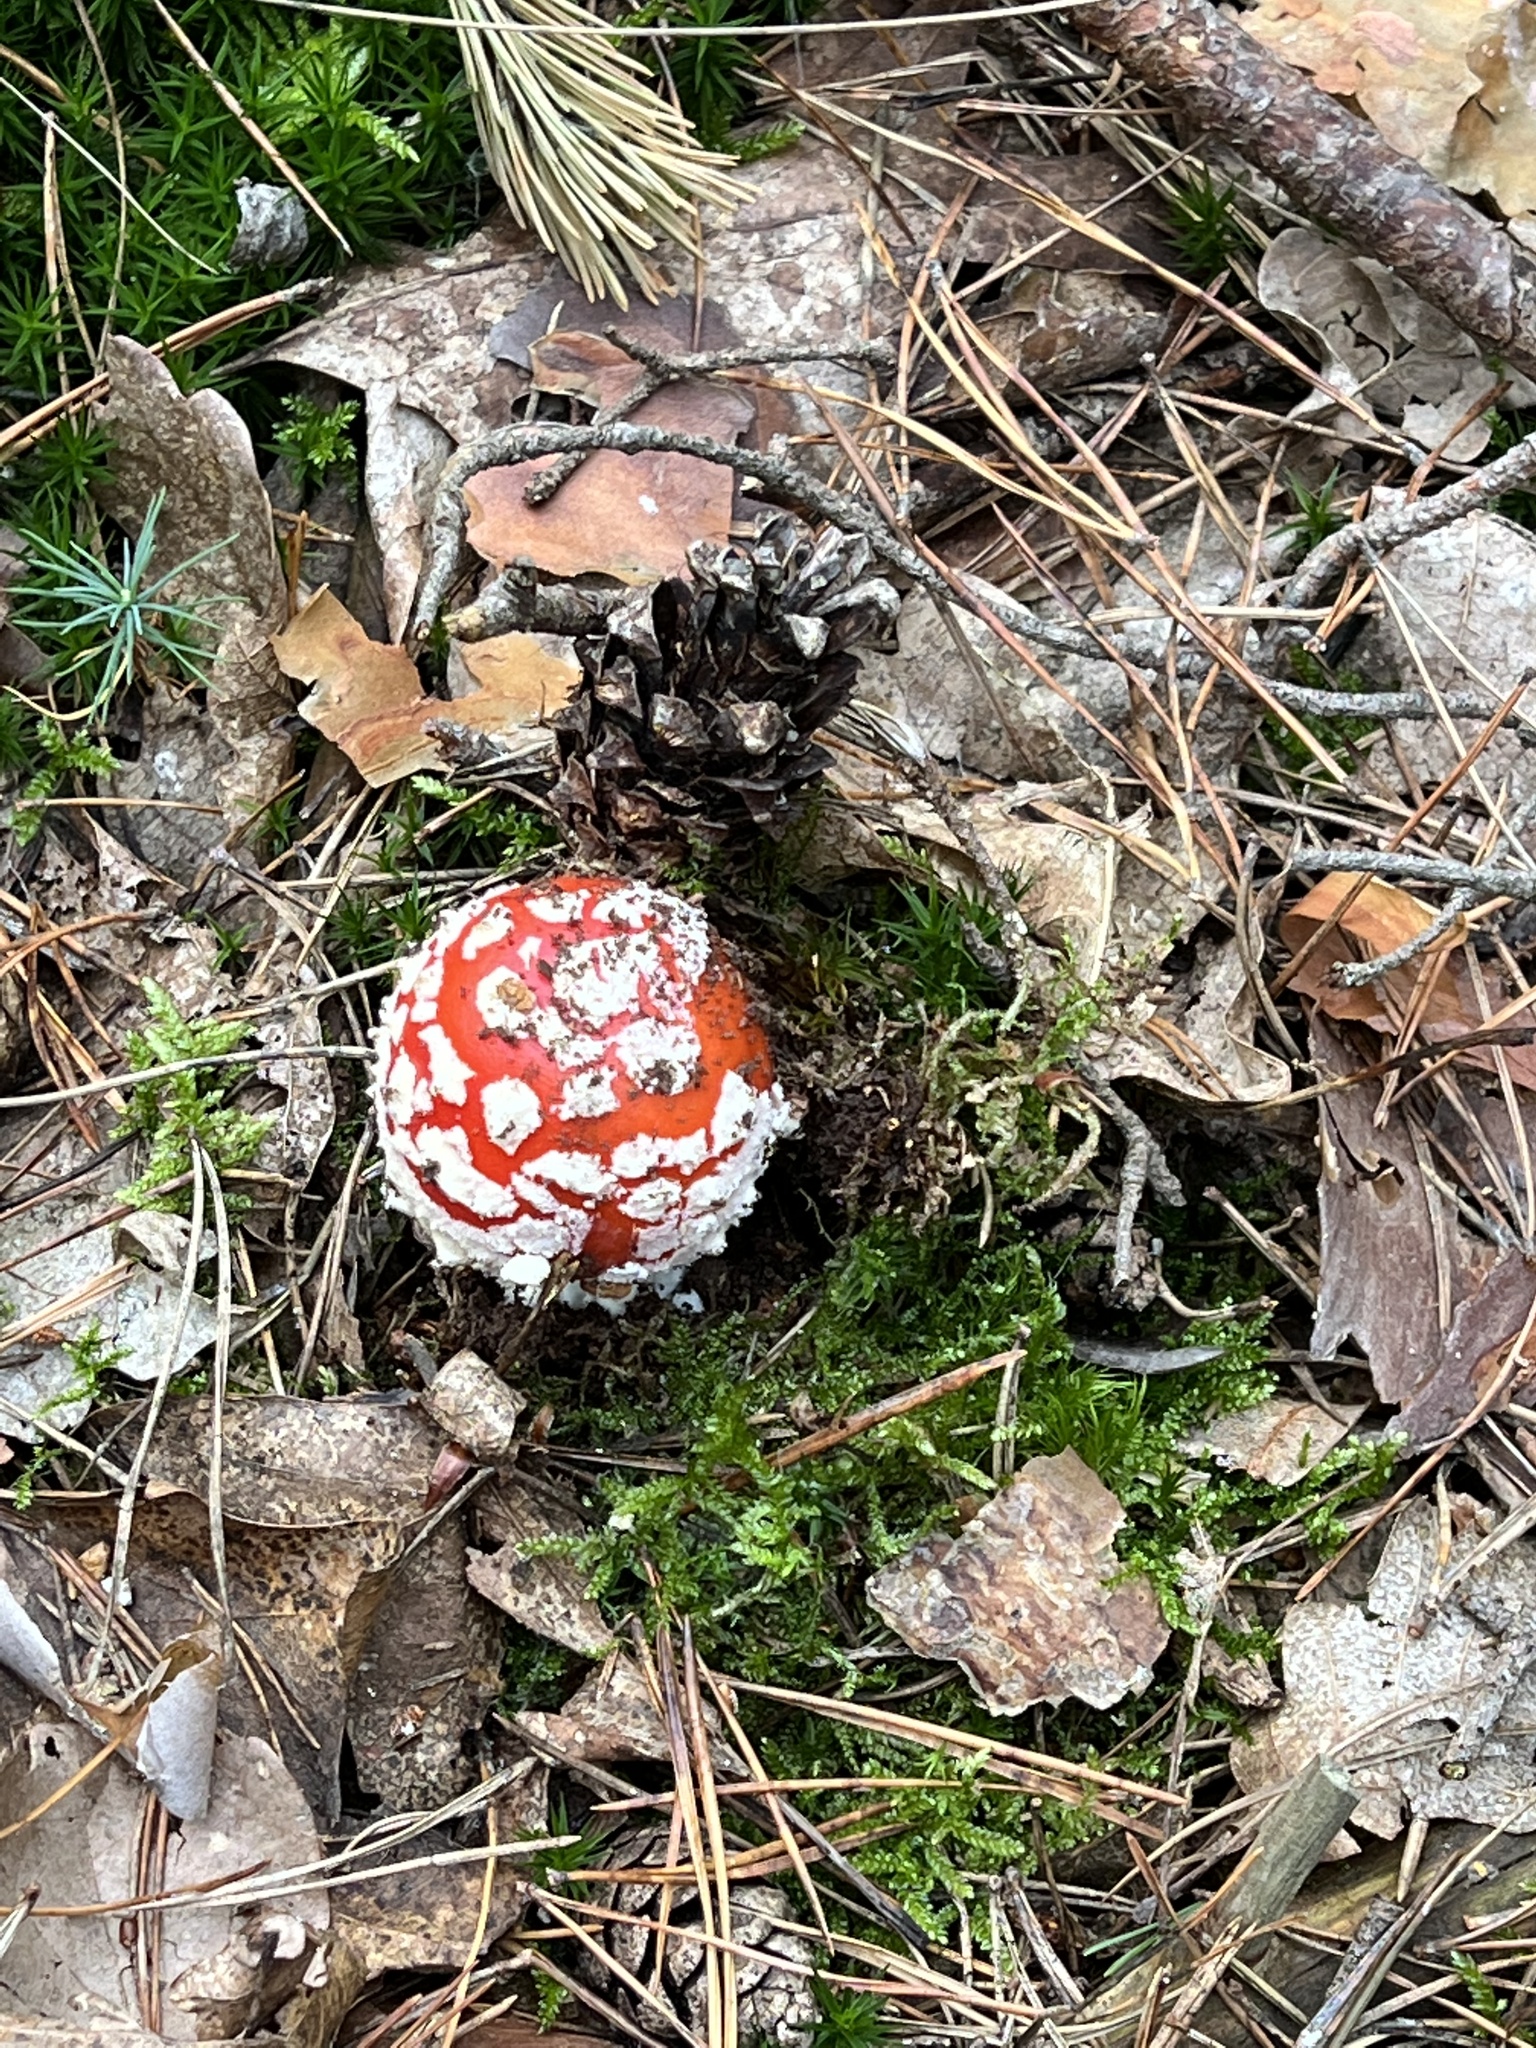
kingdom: Fungi
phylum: Basidiomycota
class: Agaricomycetes
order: Agaricales
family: Amanitaceae
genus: Amanita
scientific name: Amanita muscaria
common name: Fly agaric
